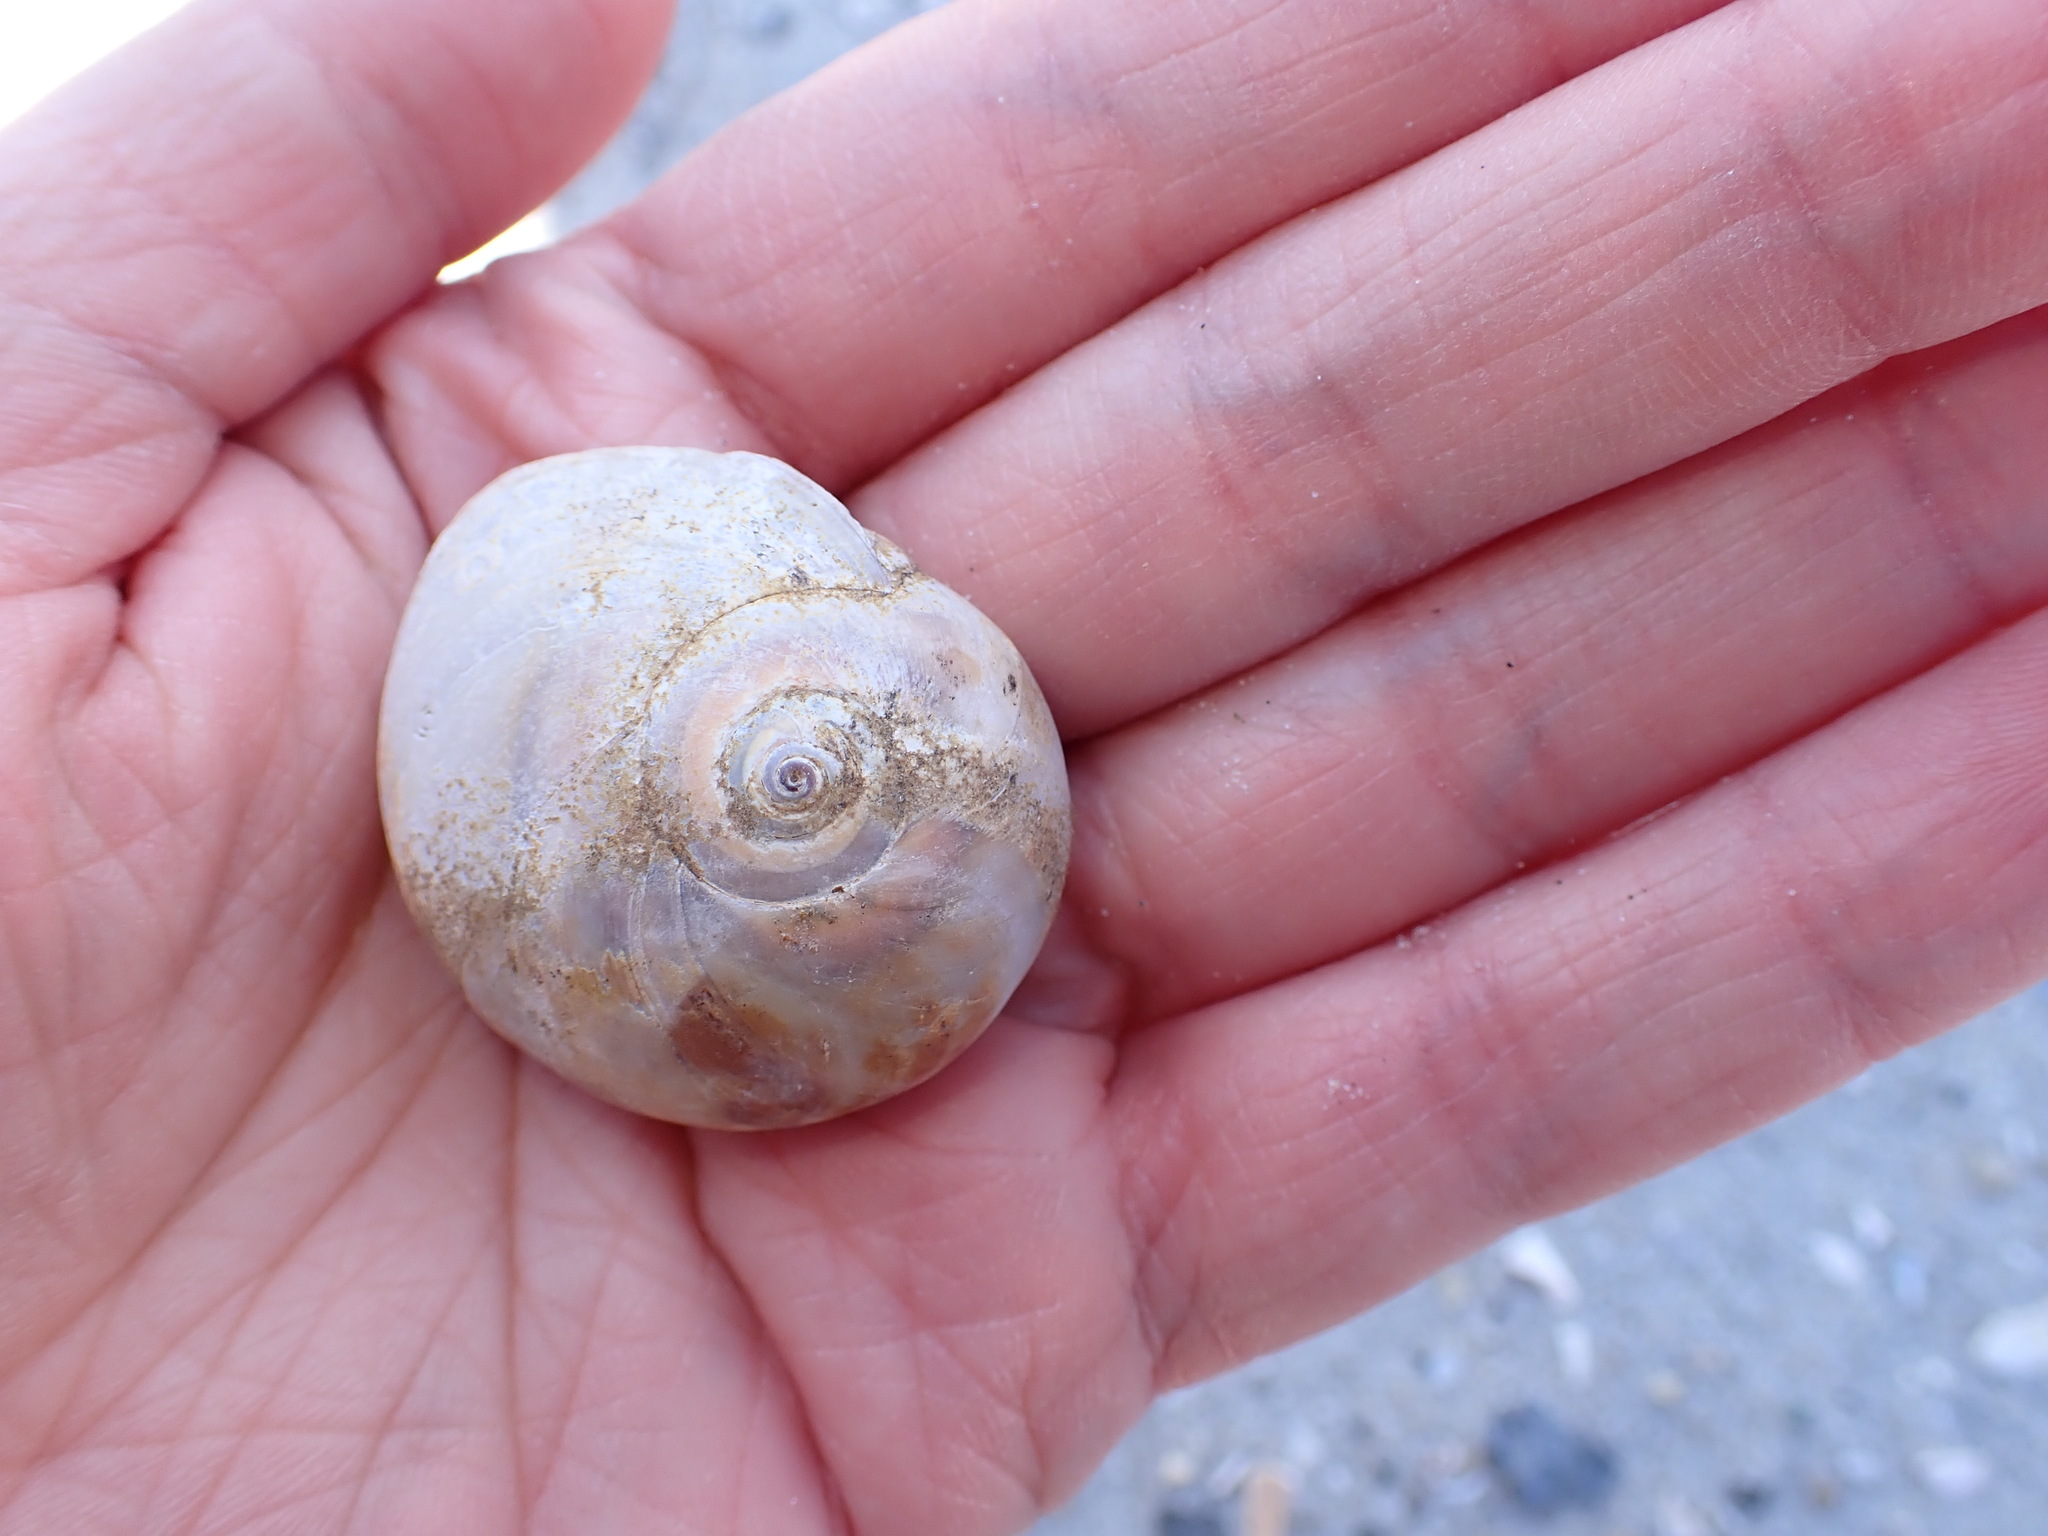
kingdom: Animalia
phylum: Mollusca
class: Gastropoda
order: Littorinimorpha
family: Naticidae
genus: Neverita
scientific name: Neverita duplicata
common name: Lobed moonsnail
